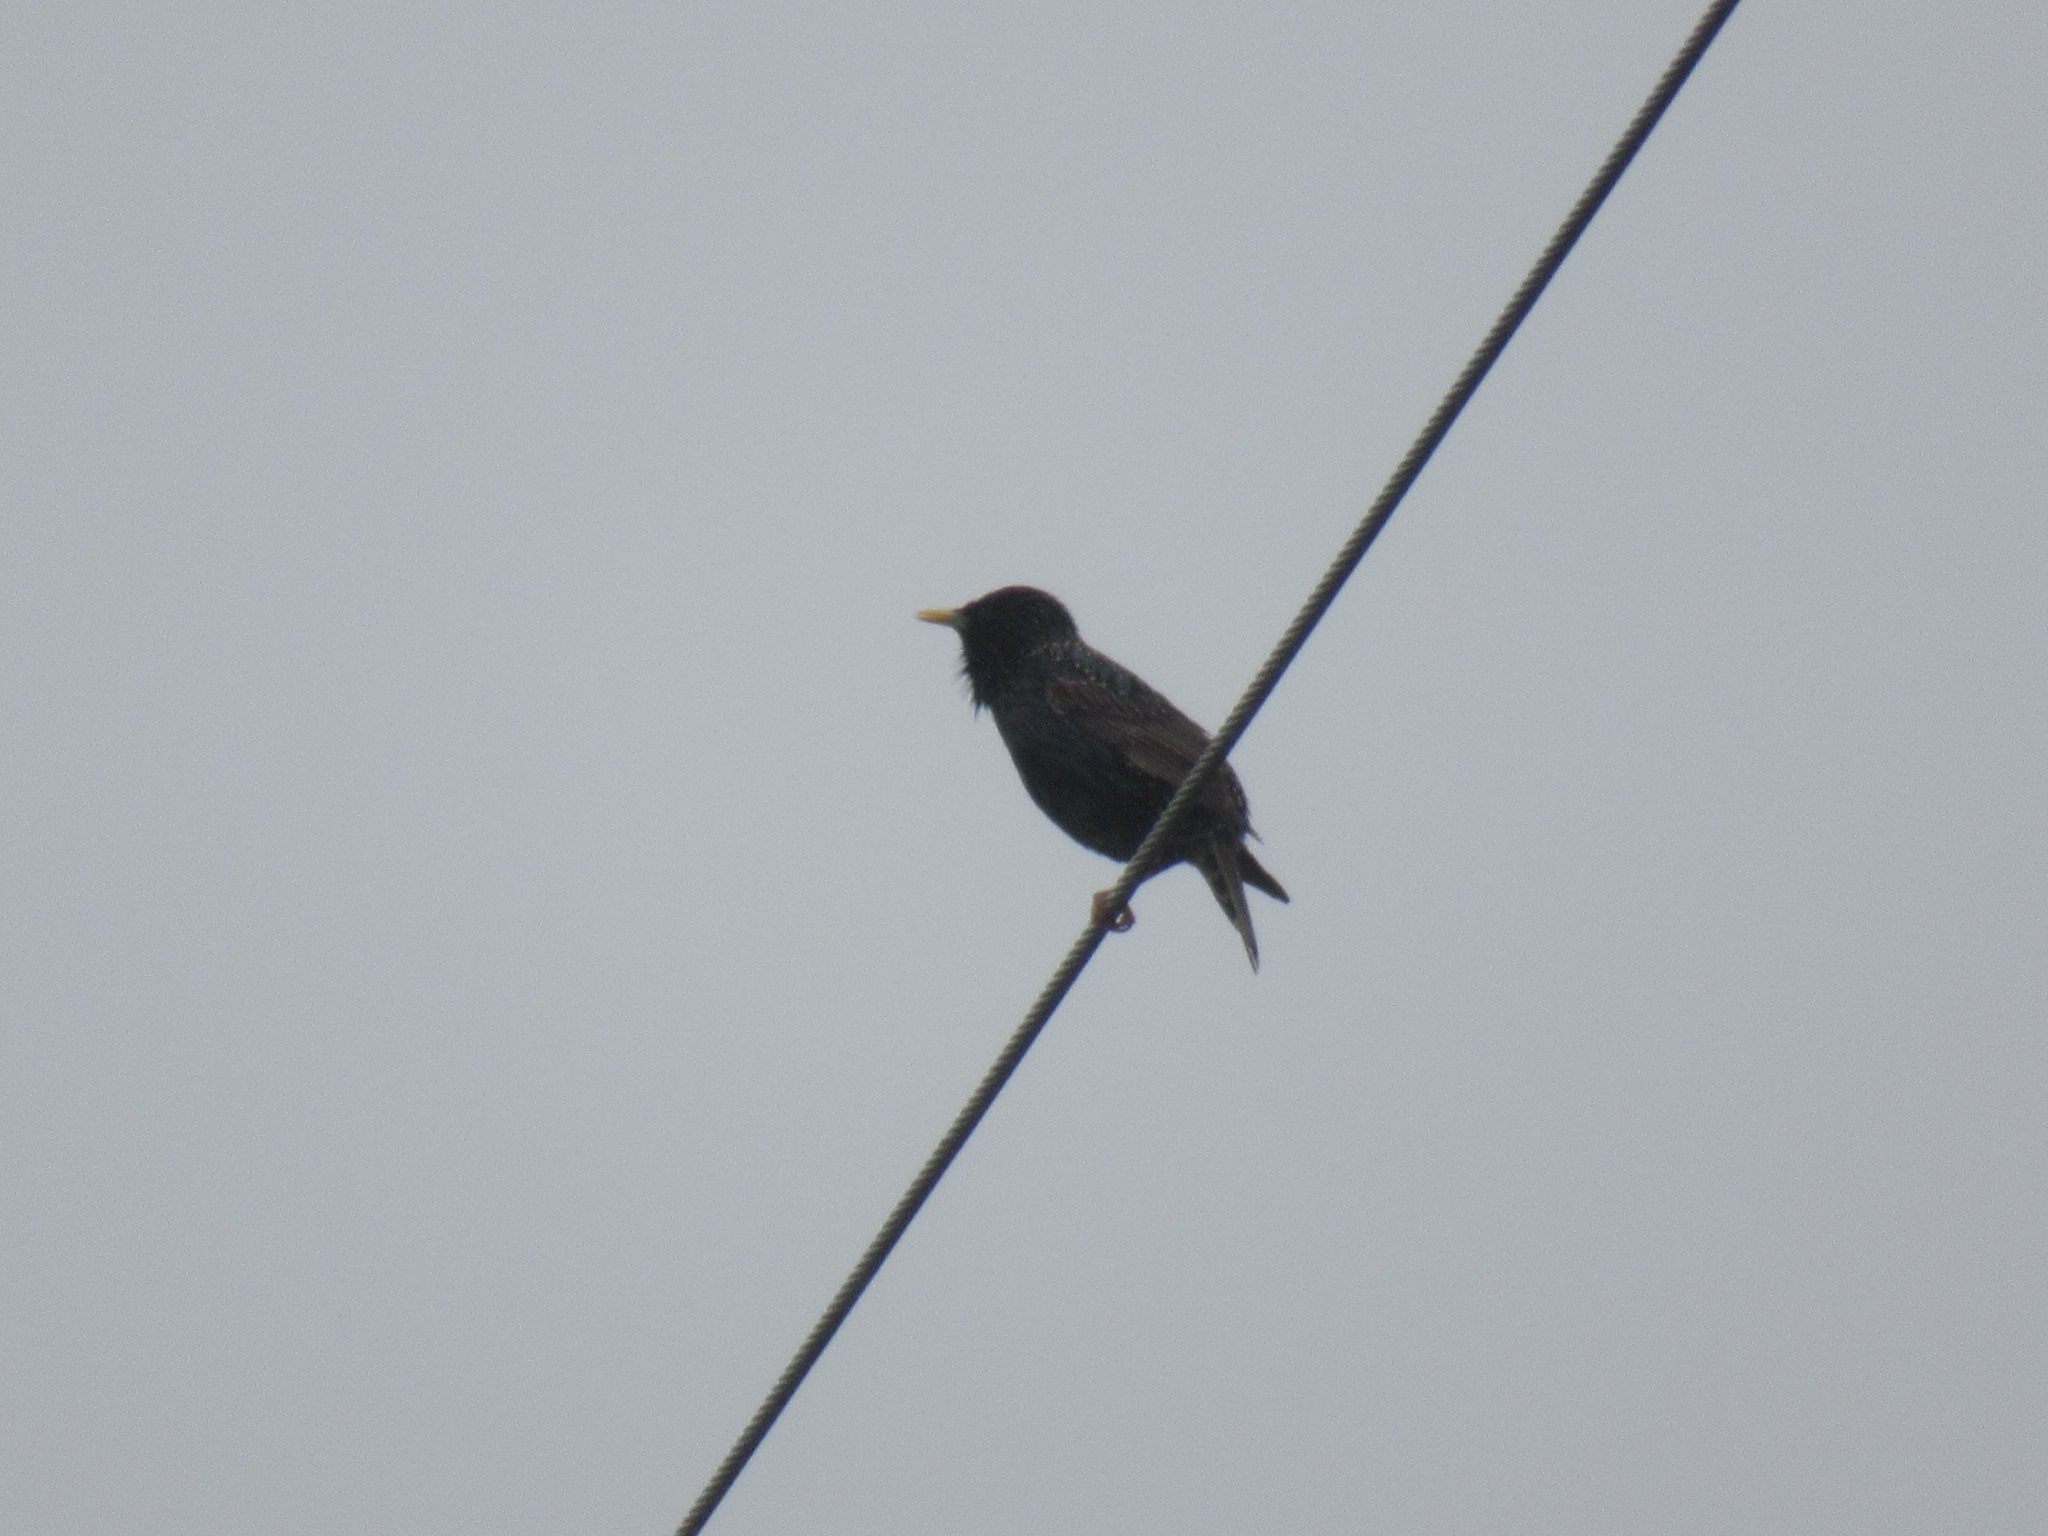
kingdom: Animalia
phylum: Chordata
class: Aves
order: Passeriformes
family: Sturnidae
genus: Sturnus
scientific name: Sturnus vulgaris
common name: Common starling
